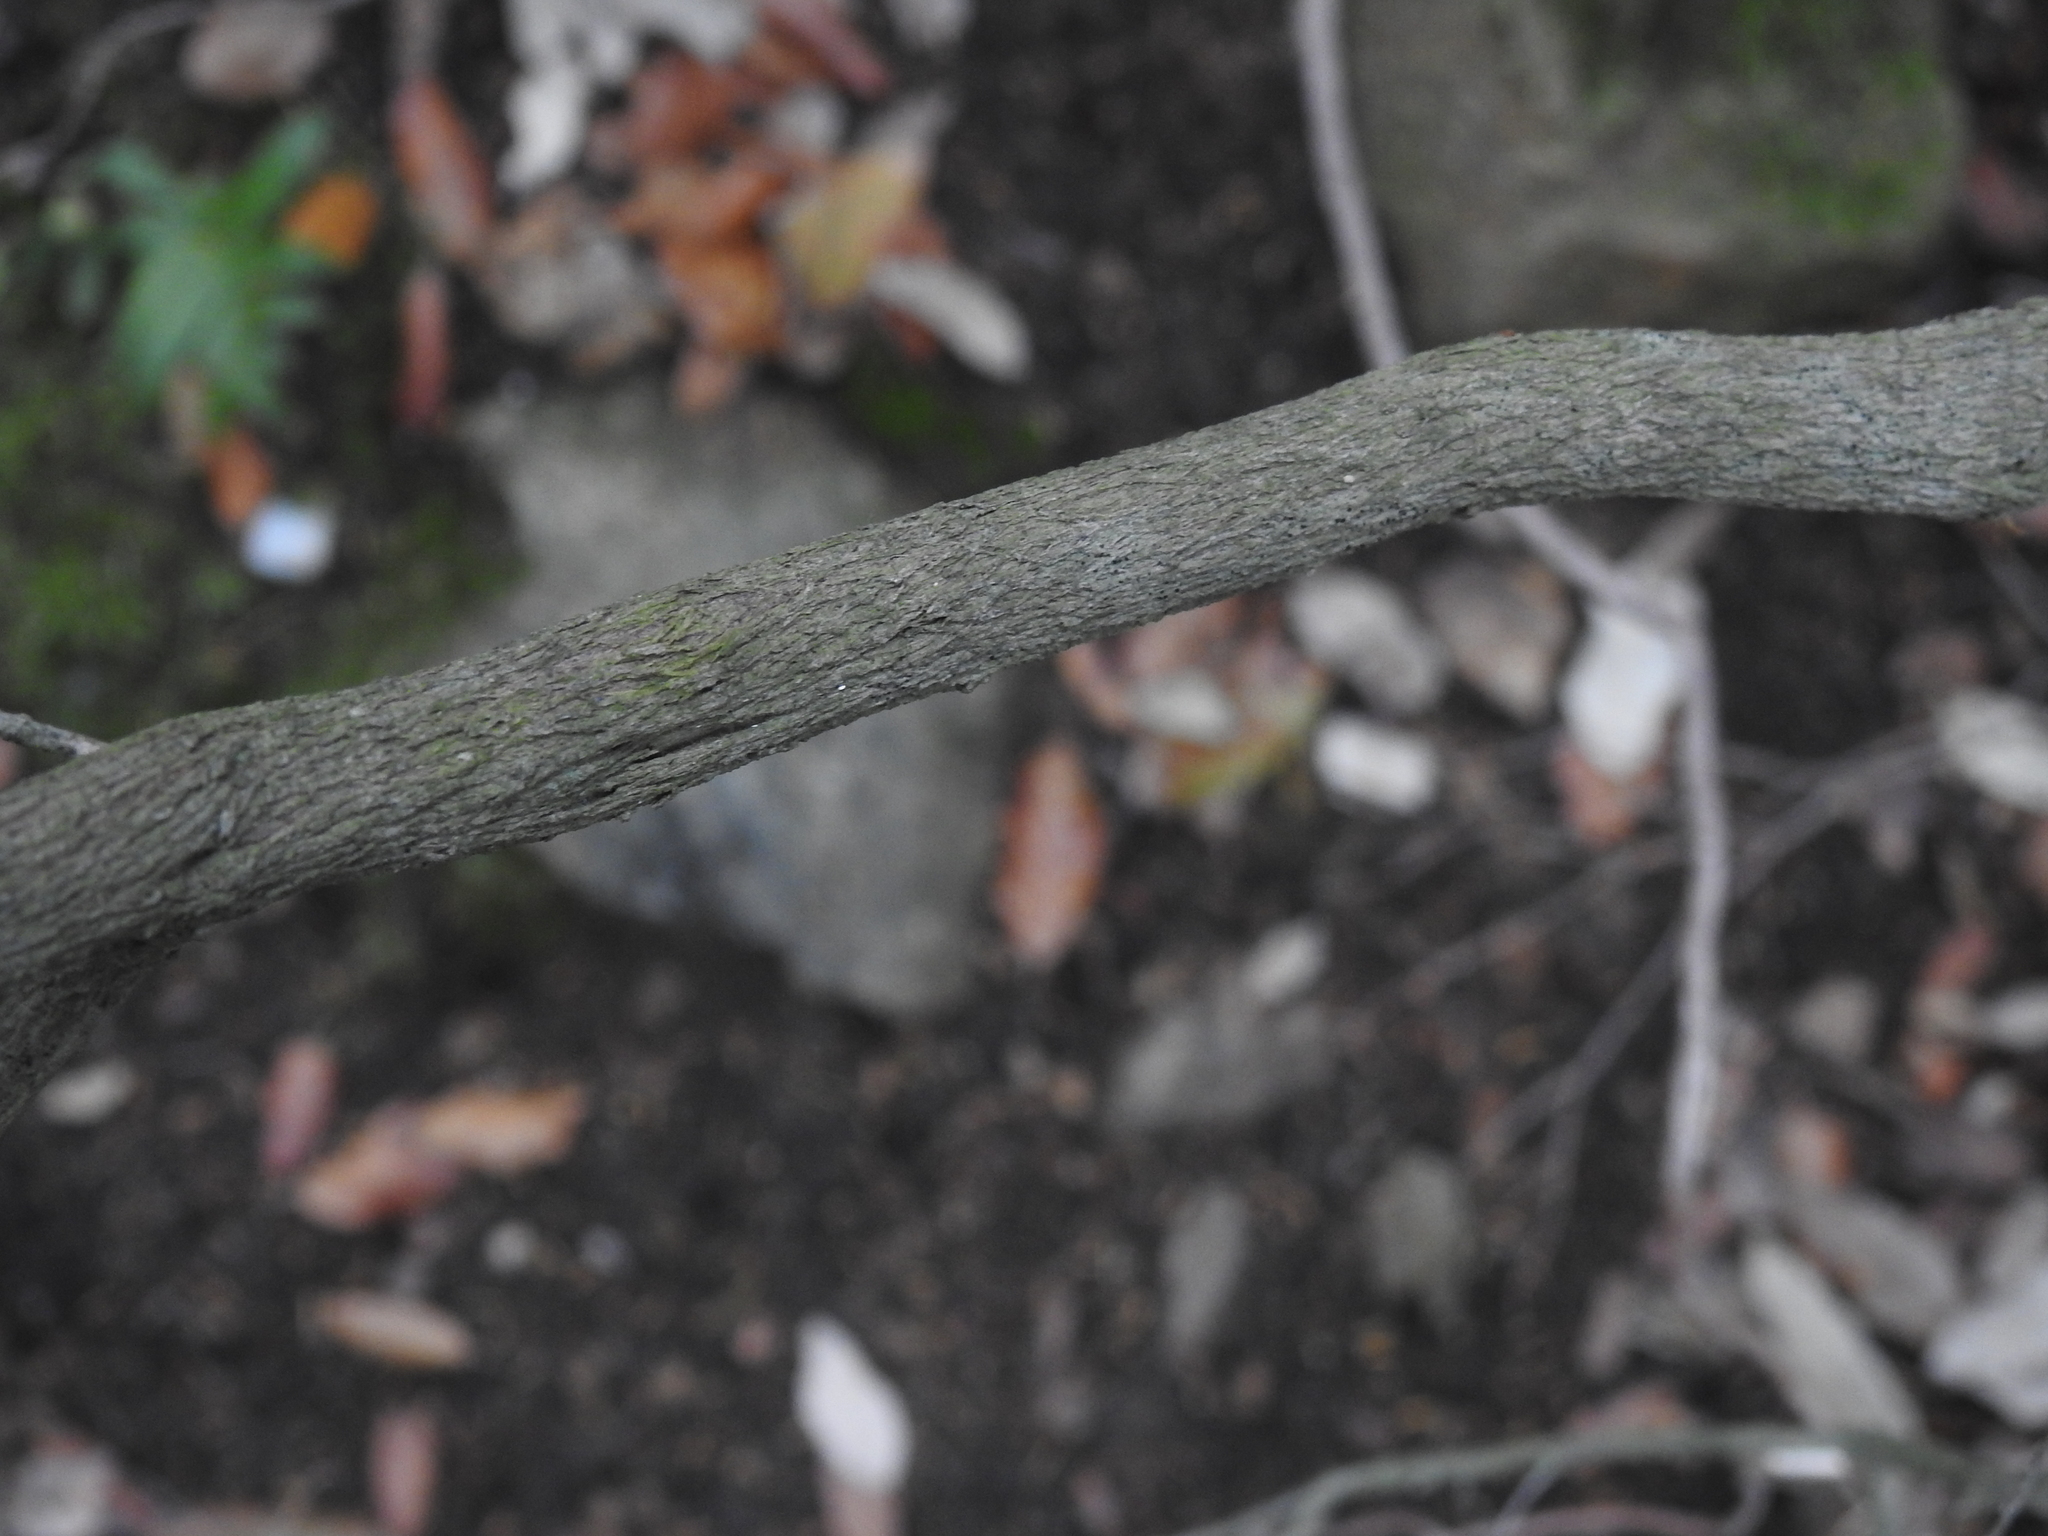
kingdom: Plantae
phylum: Tracheophyta
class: Magnoliopsida
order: Ericales
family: Ericaceae
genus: Erica
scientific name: Erica arborea
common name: Tree heath
